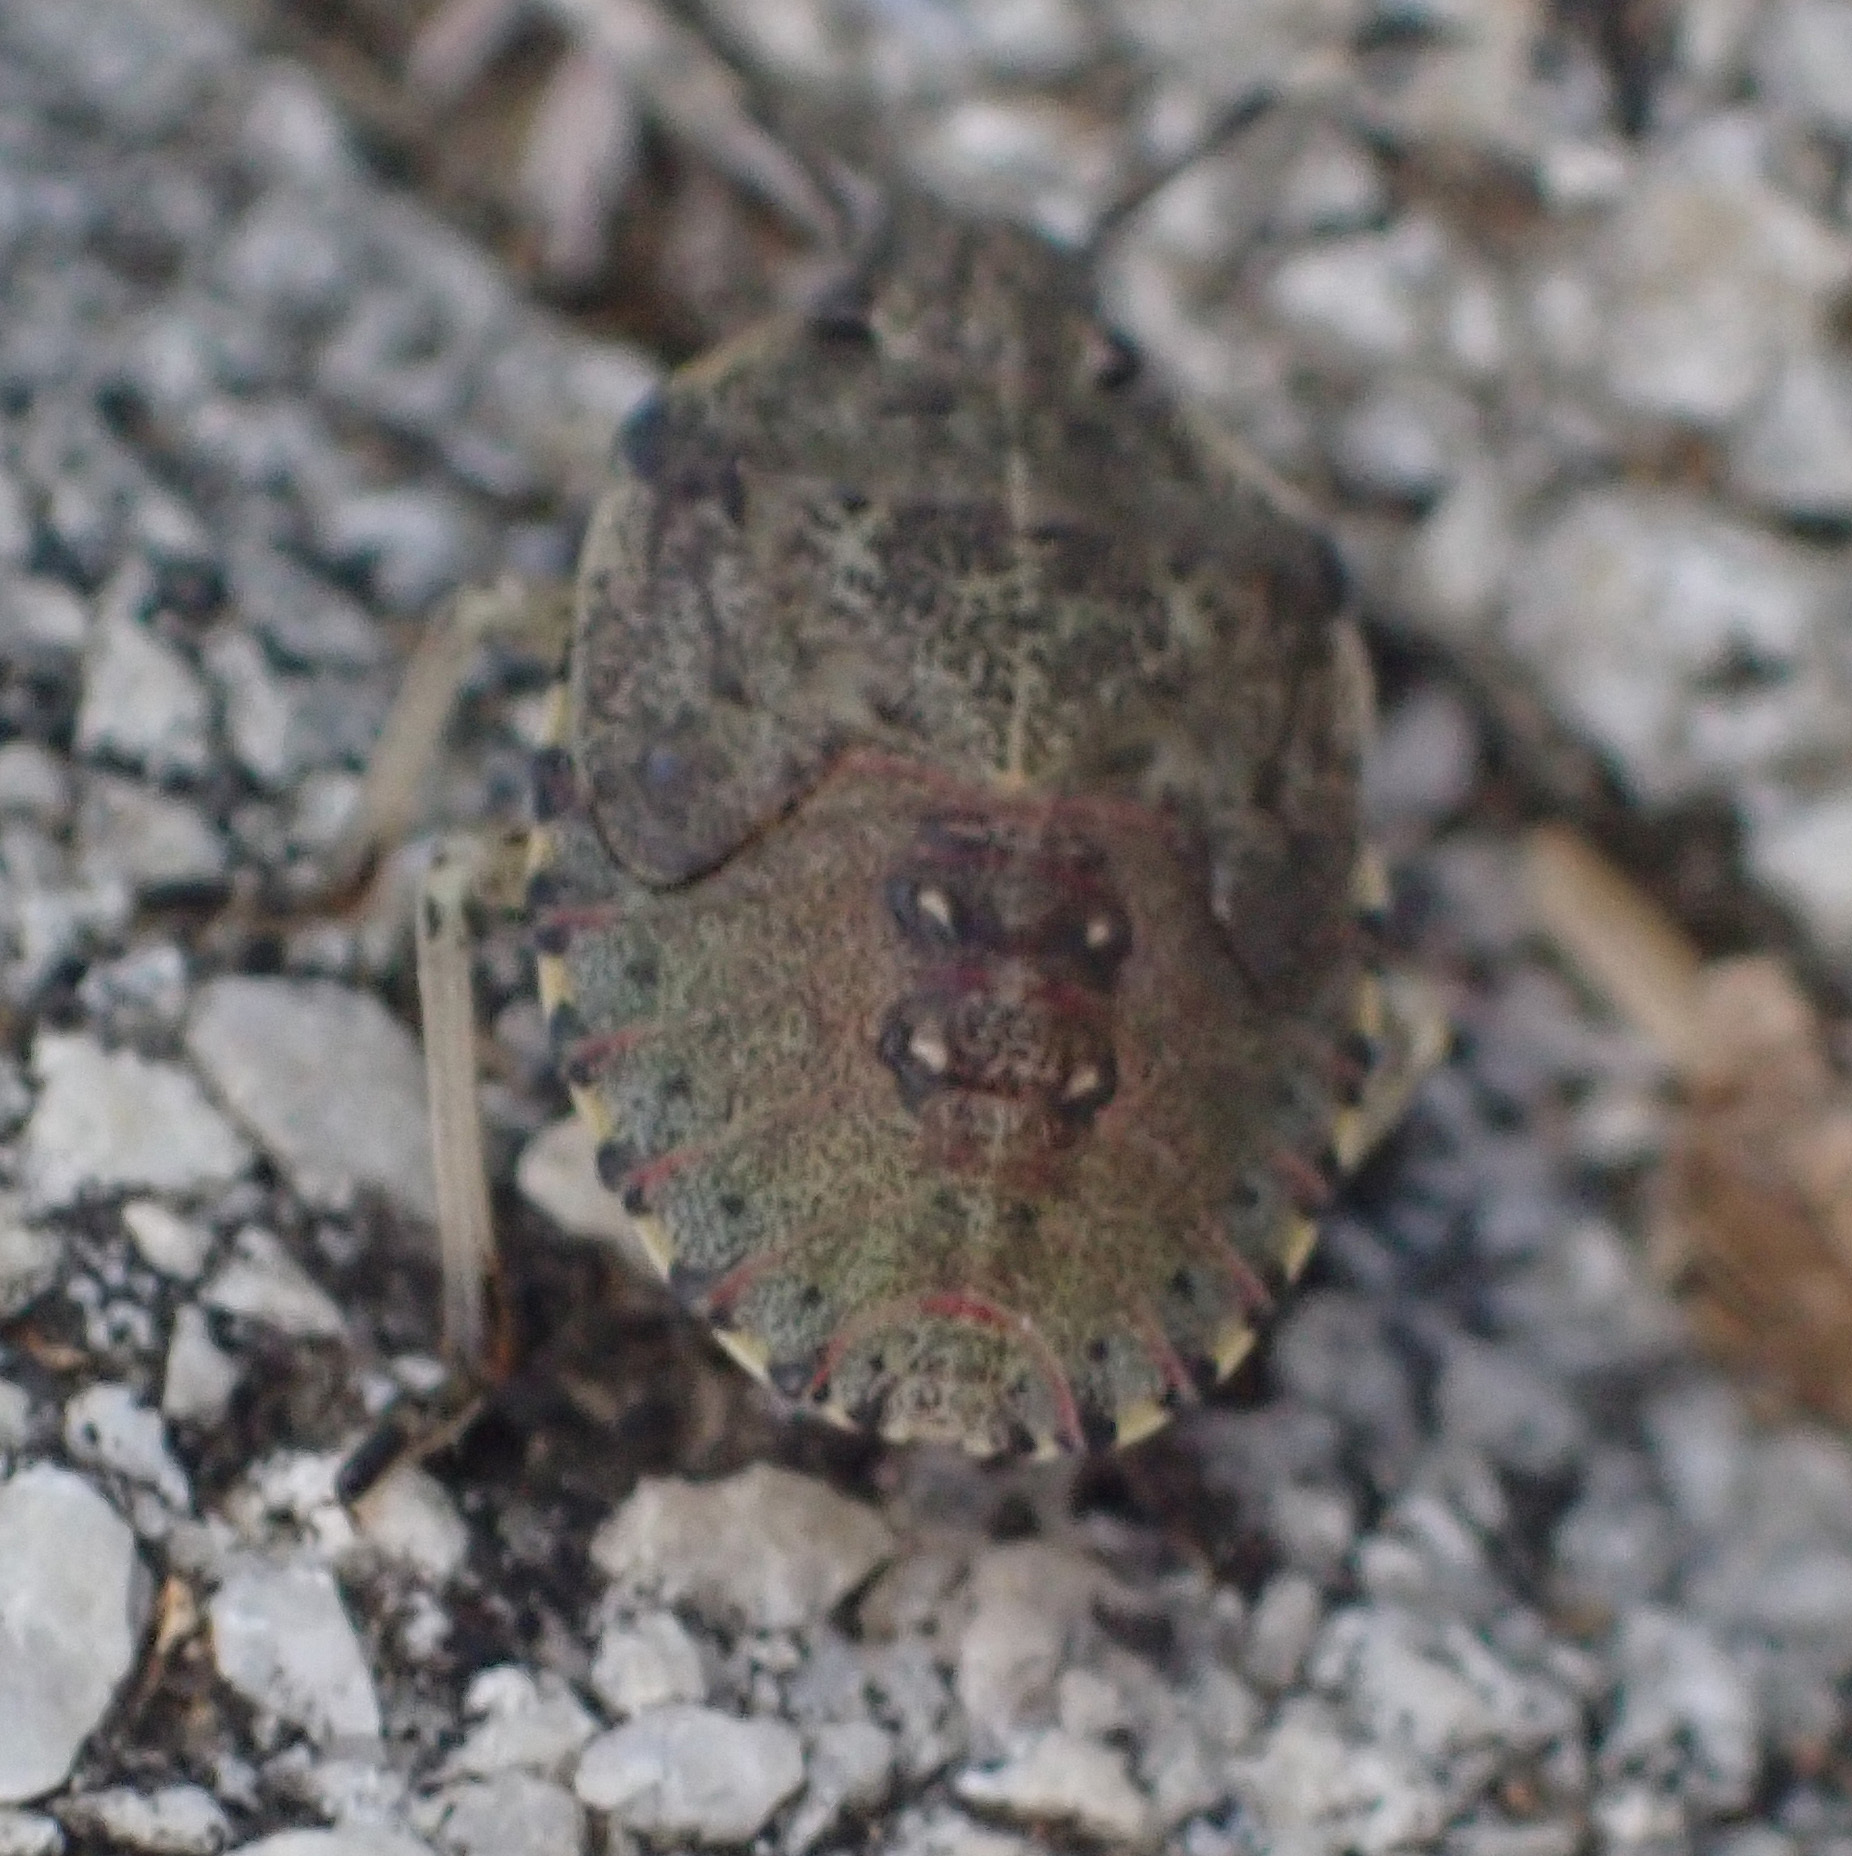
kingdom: Animalia
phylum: Arthropoda
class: Insecta
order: Hemiptera
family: Pentatomidae
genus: Rhaphigaster
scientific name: Rhaphigaster nebulosa
